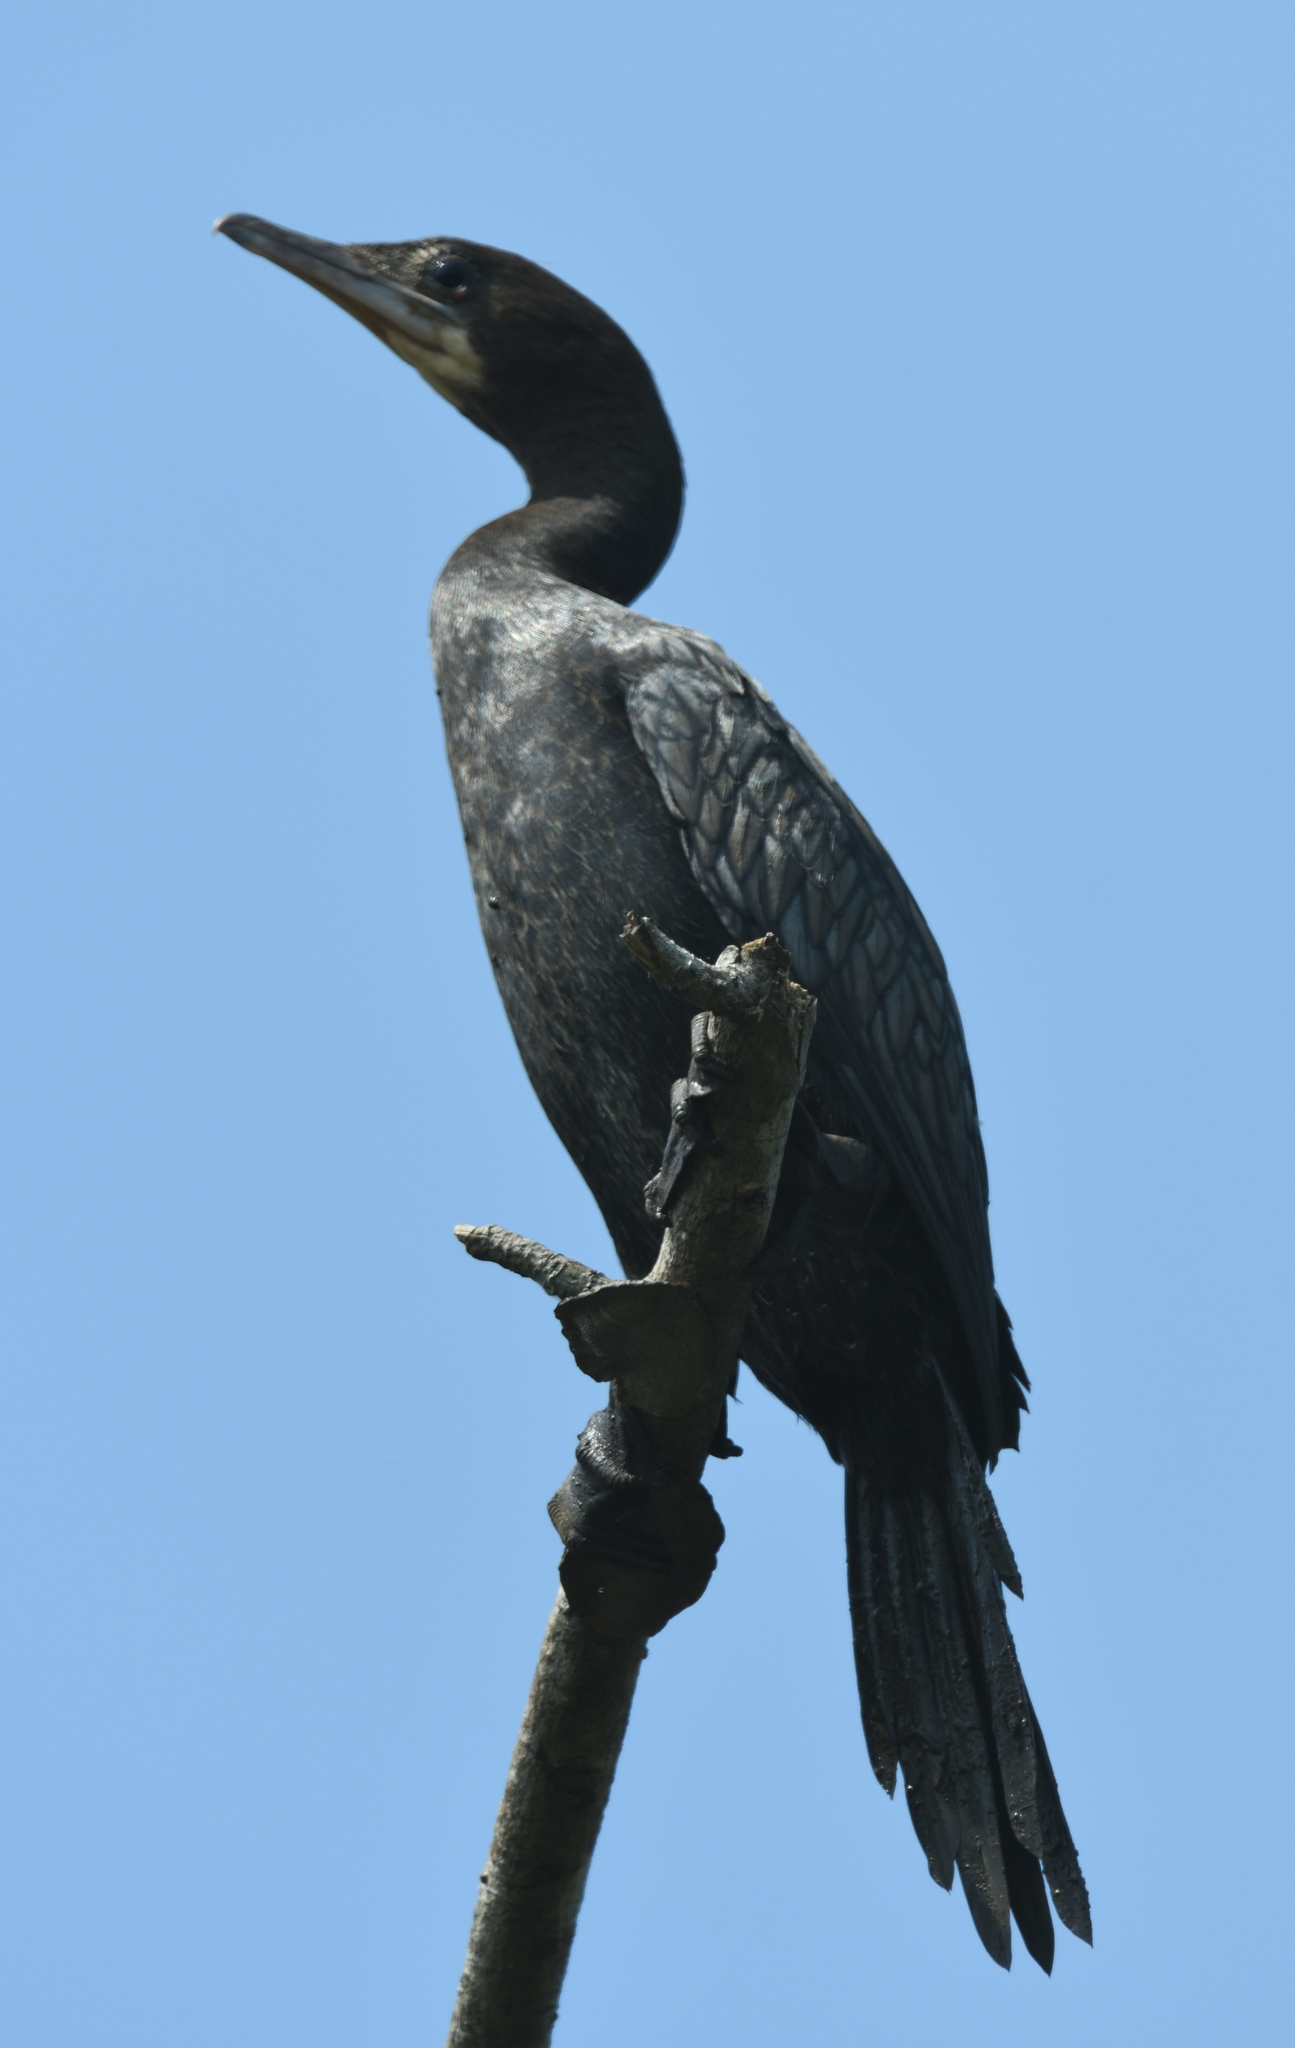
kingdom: Animalia
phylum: Chordata
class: Aves
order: Suliformes
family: Phalacrocoracidae
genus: Microcarbo
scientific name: Microcarbo niger
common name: Little cormorant
